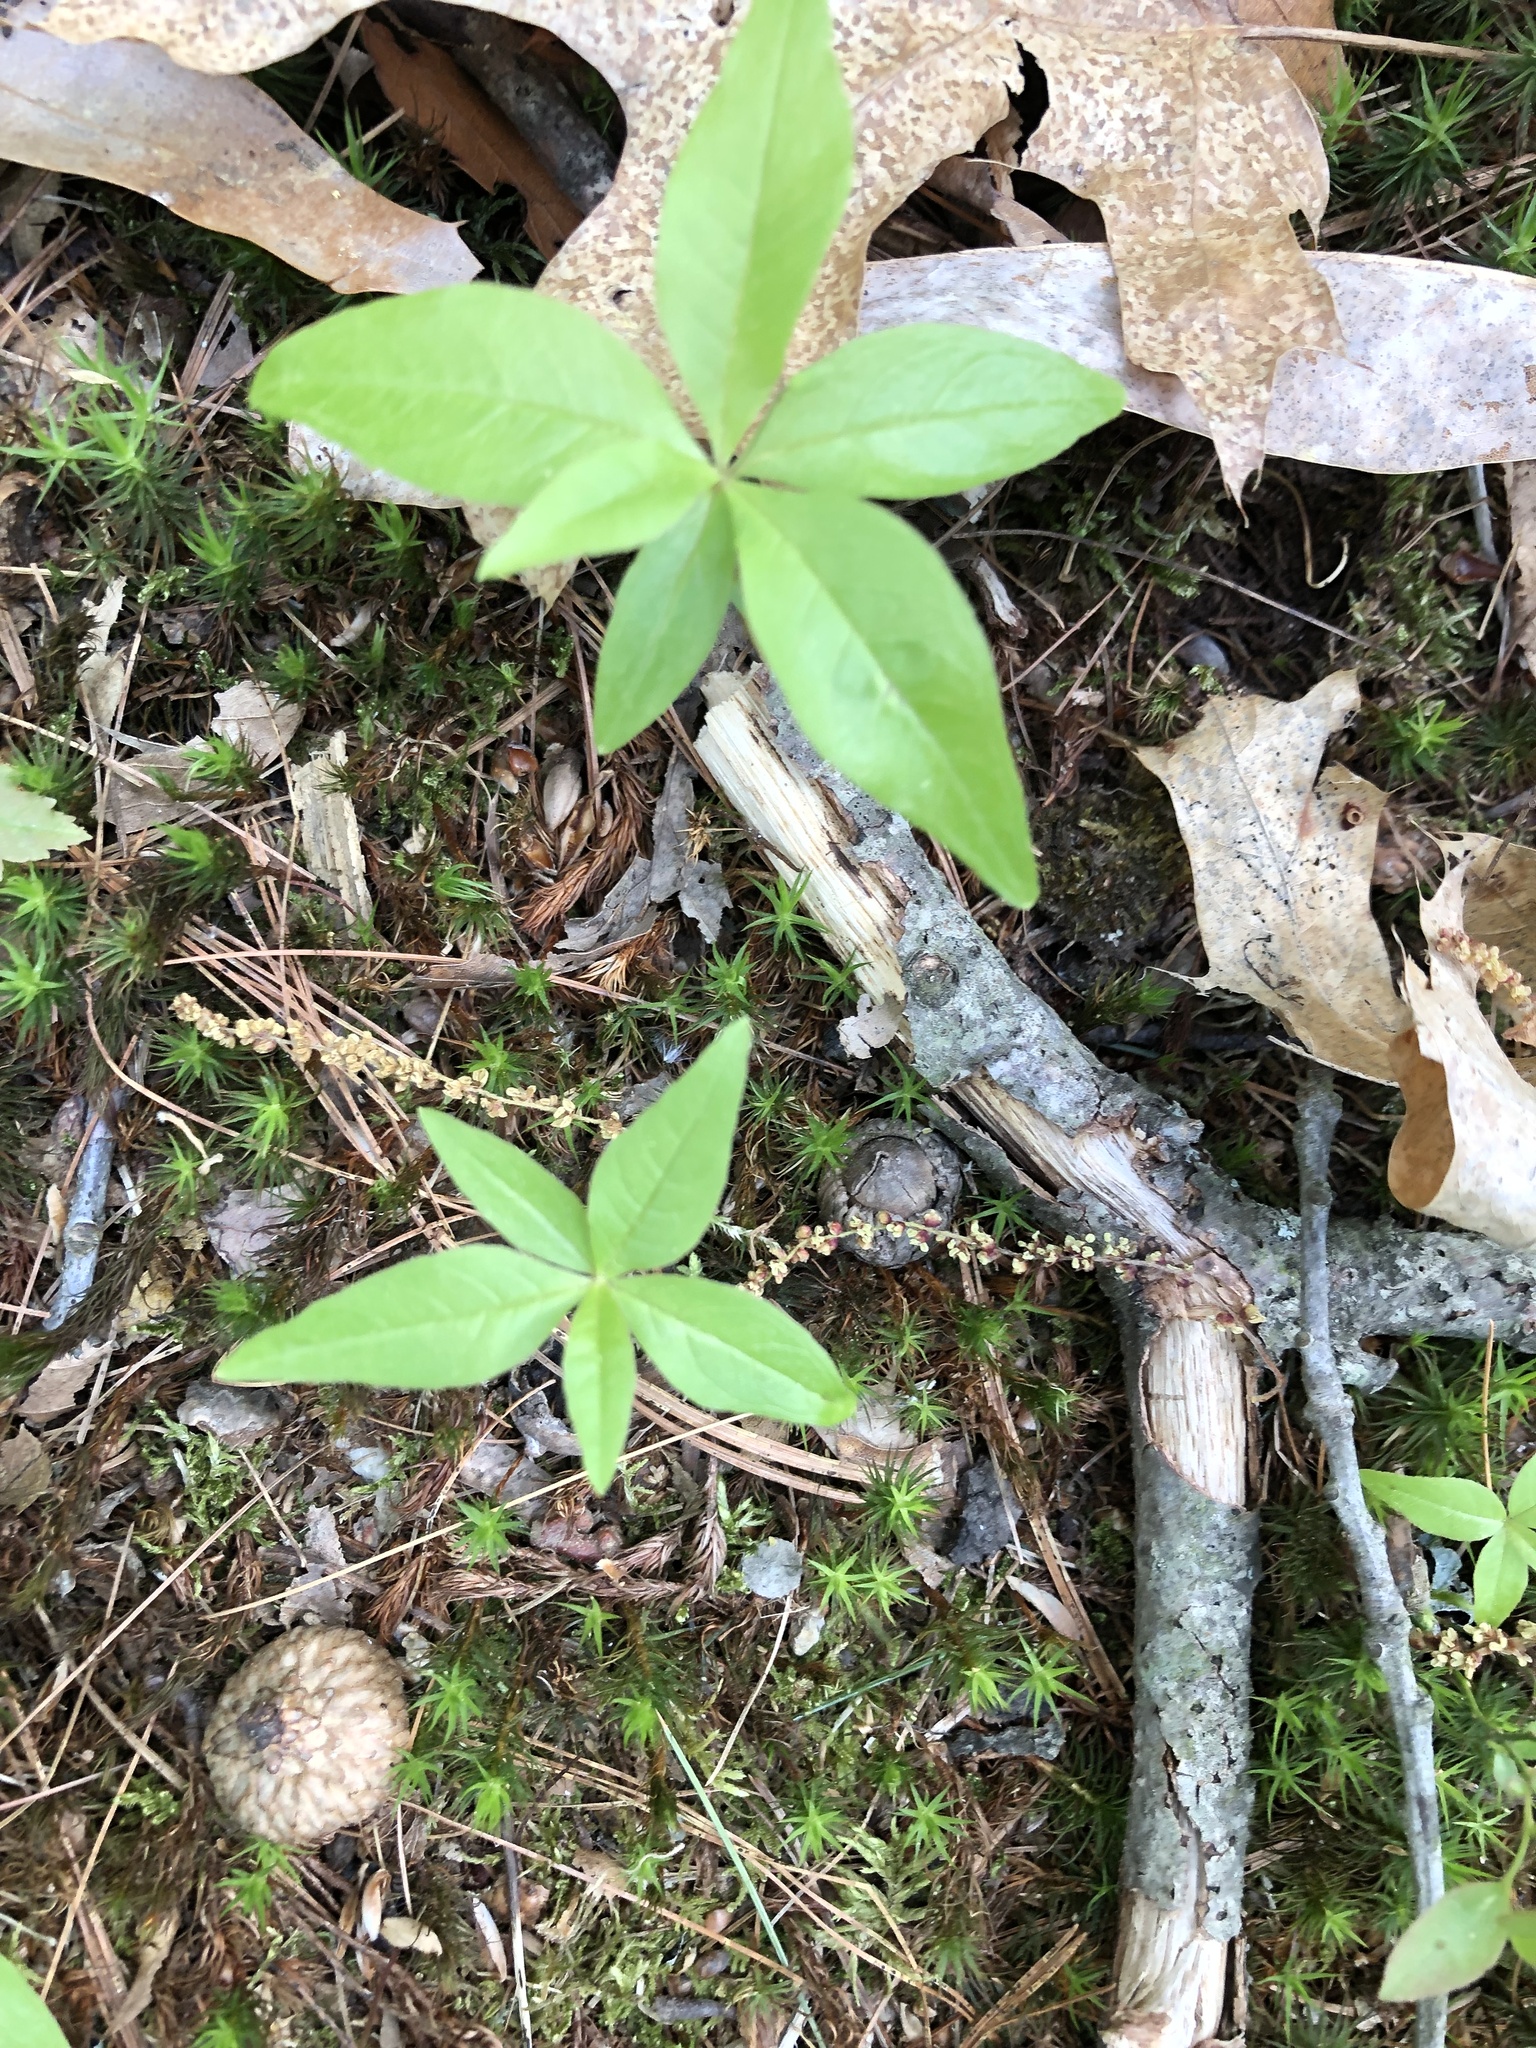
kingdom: Plantae
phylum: Tracheophyta
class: Magnoliopsida
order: Ericales
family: Primulaceae
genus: Lysimachia
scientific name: Lysimachia borealis
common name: American starflower
